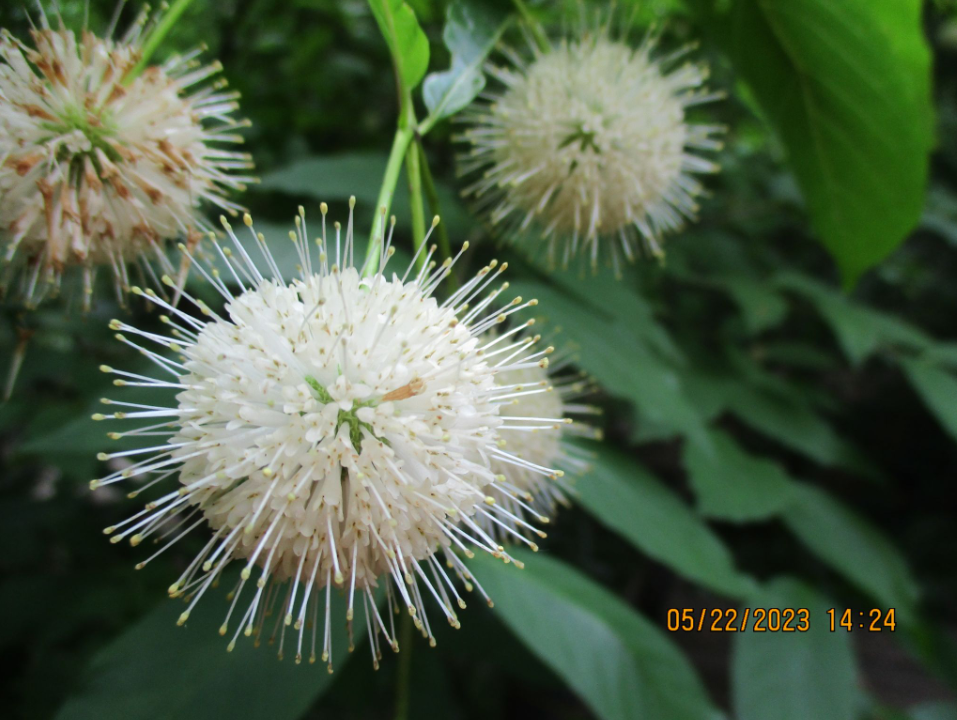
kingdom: Plantae
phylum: Tracheophyta
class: Magnoliopsida
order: Gentianales
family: Rubiaceae
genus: Cephalanthus
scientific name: Cephalanthus occidentalis
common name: Button-willow
